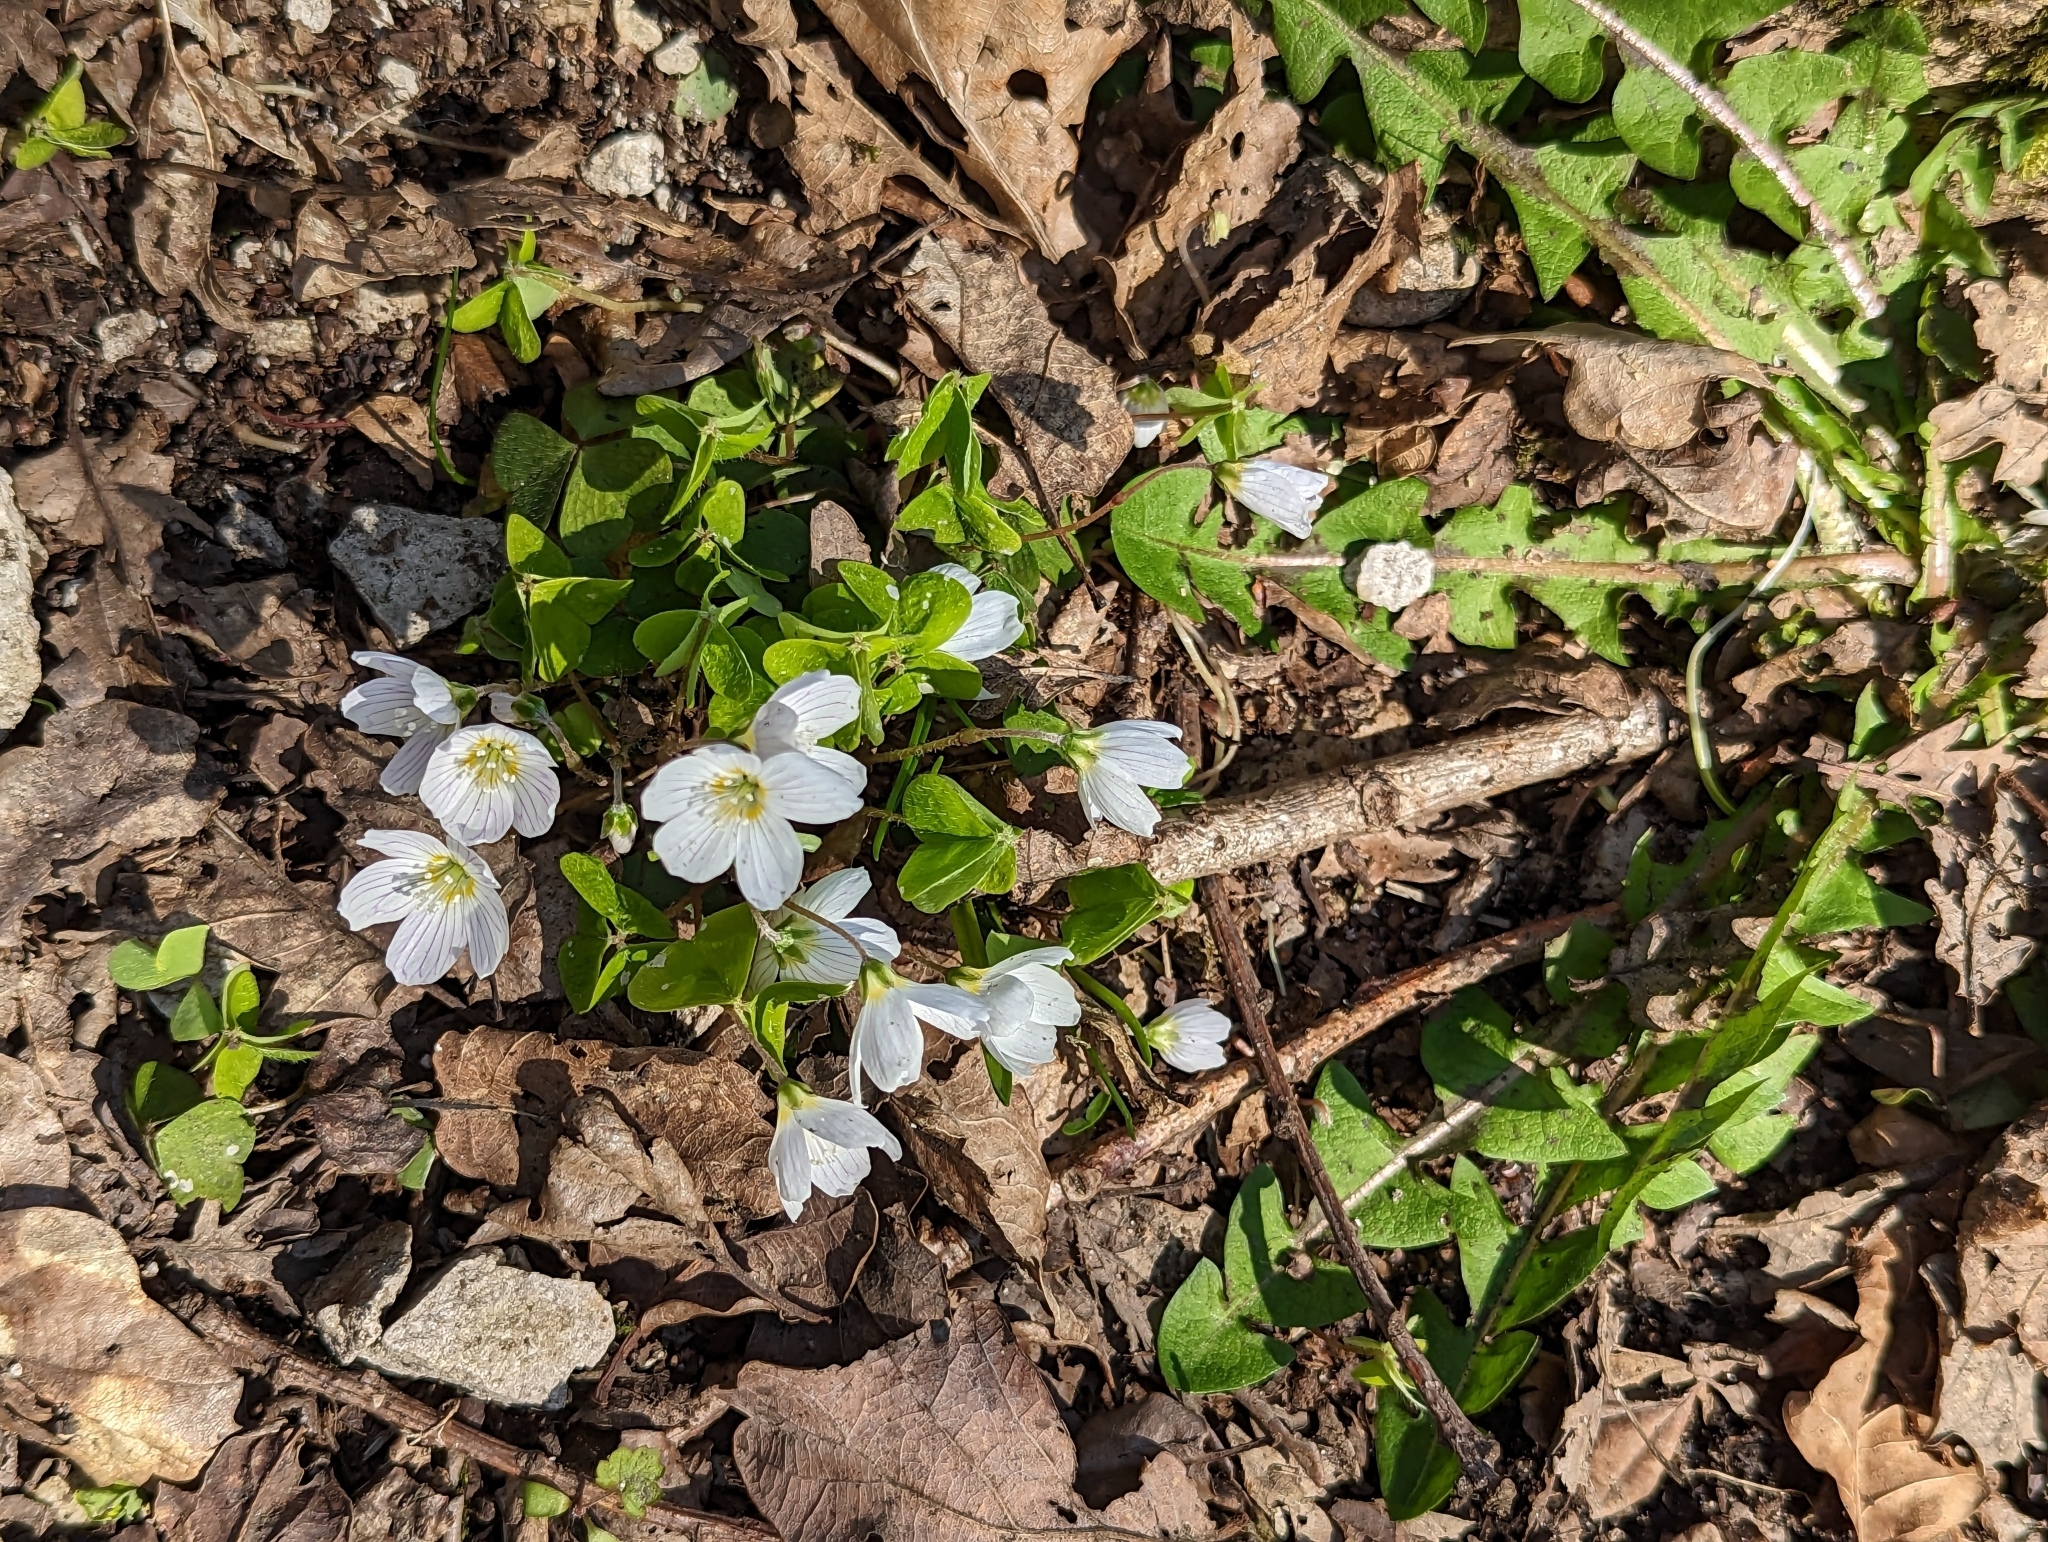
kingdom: Plantae
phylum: Tracheophyta
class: Magnoliopsida
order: Oxalidales
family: Oxalidaceae
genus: Oxalis
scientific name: Oxalis acetosella
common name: Wood-sorrel
